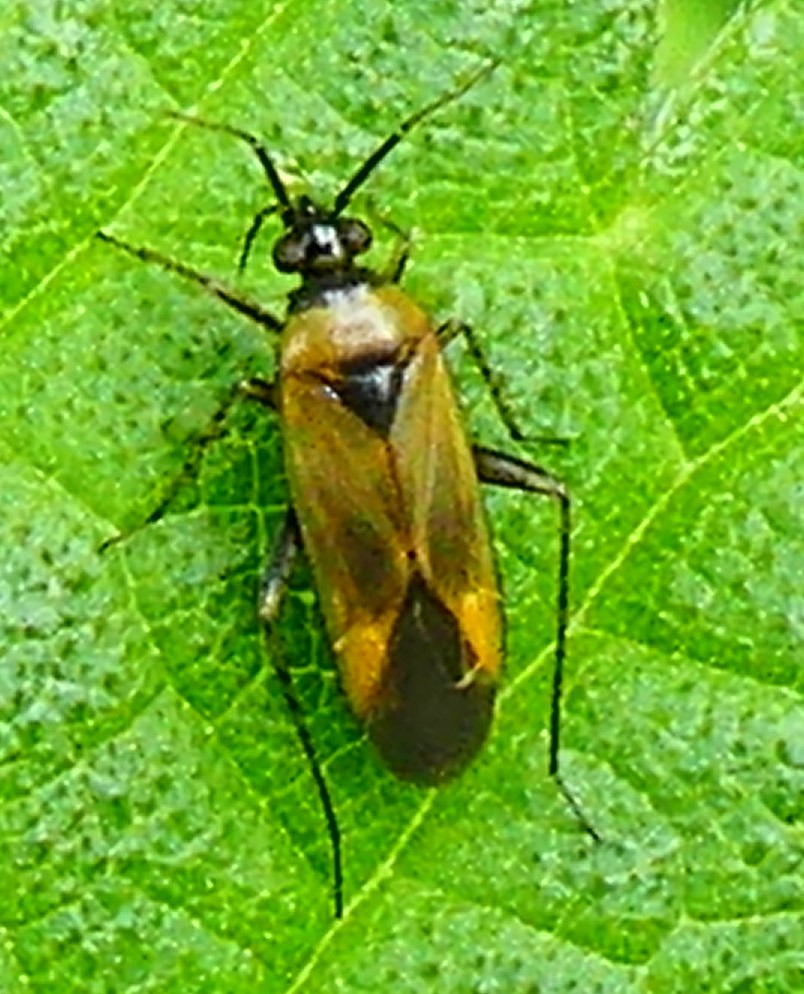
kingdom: Animalia
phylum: Arthropoda
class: Insecta
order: Hemiptera
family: Miridae
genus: Plagiognathus
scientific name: Plagiognathus arbustorum
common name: Plant bug
